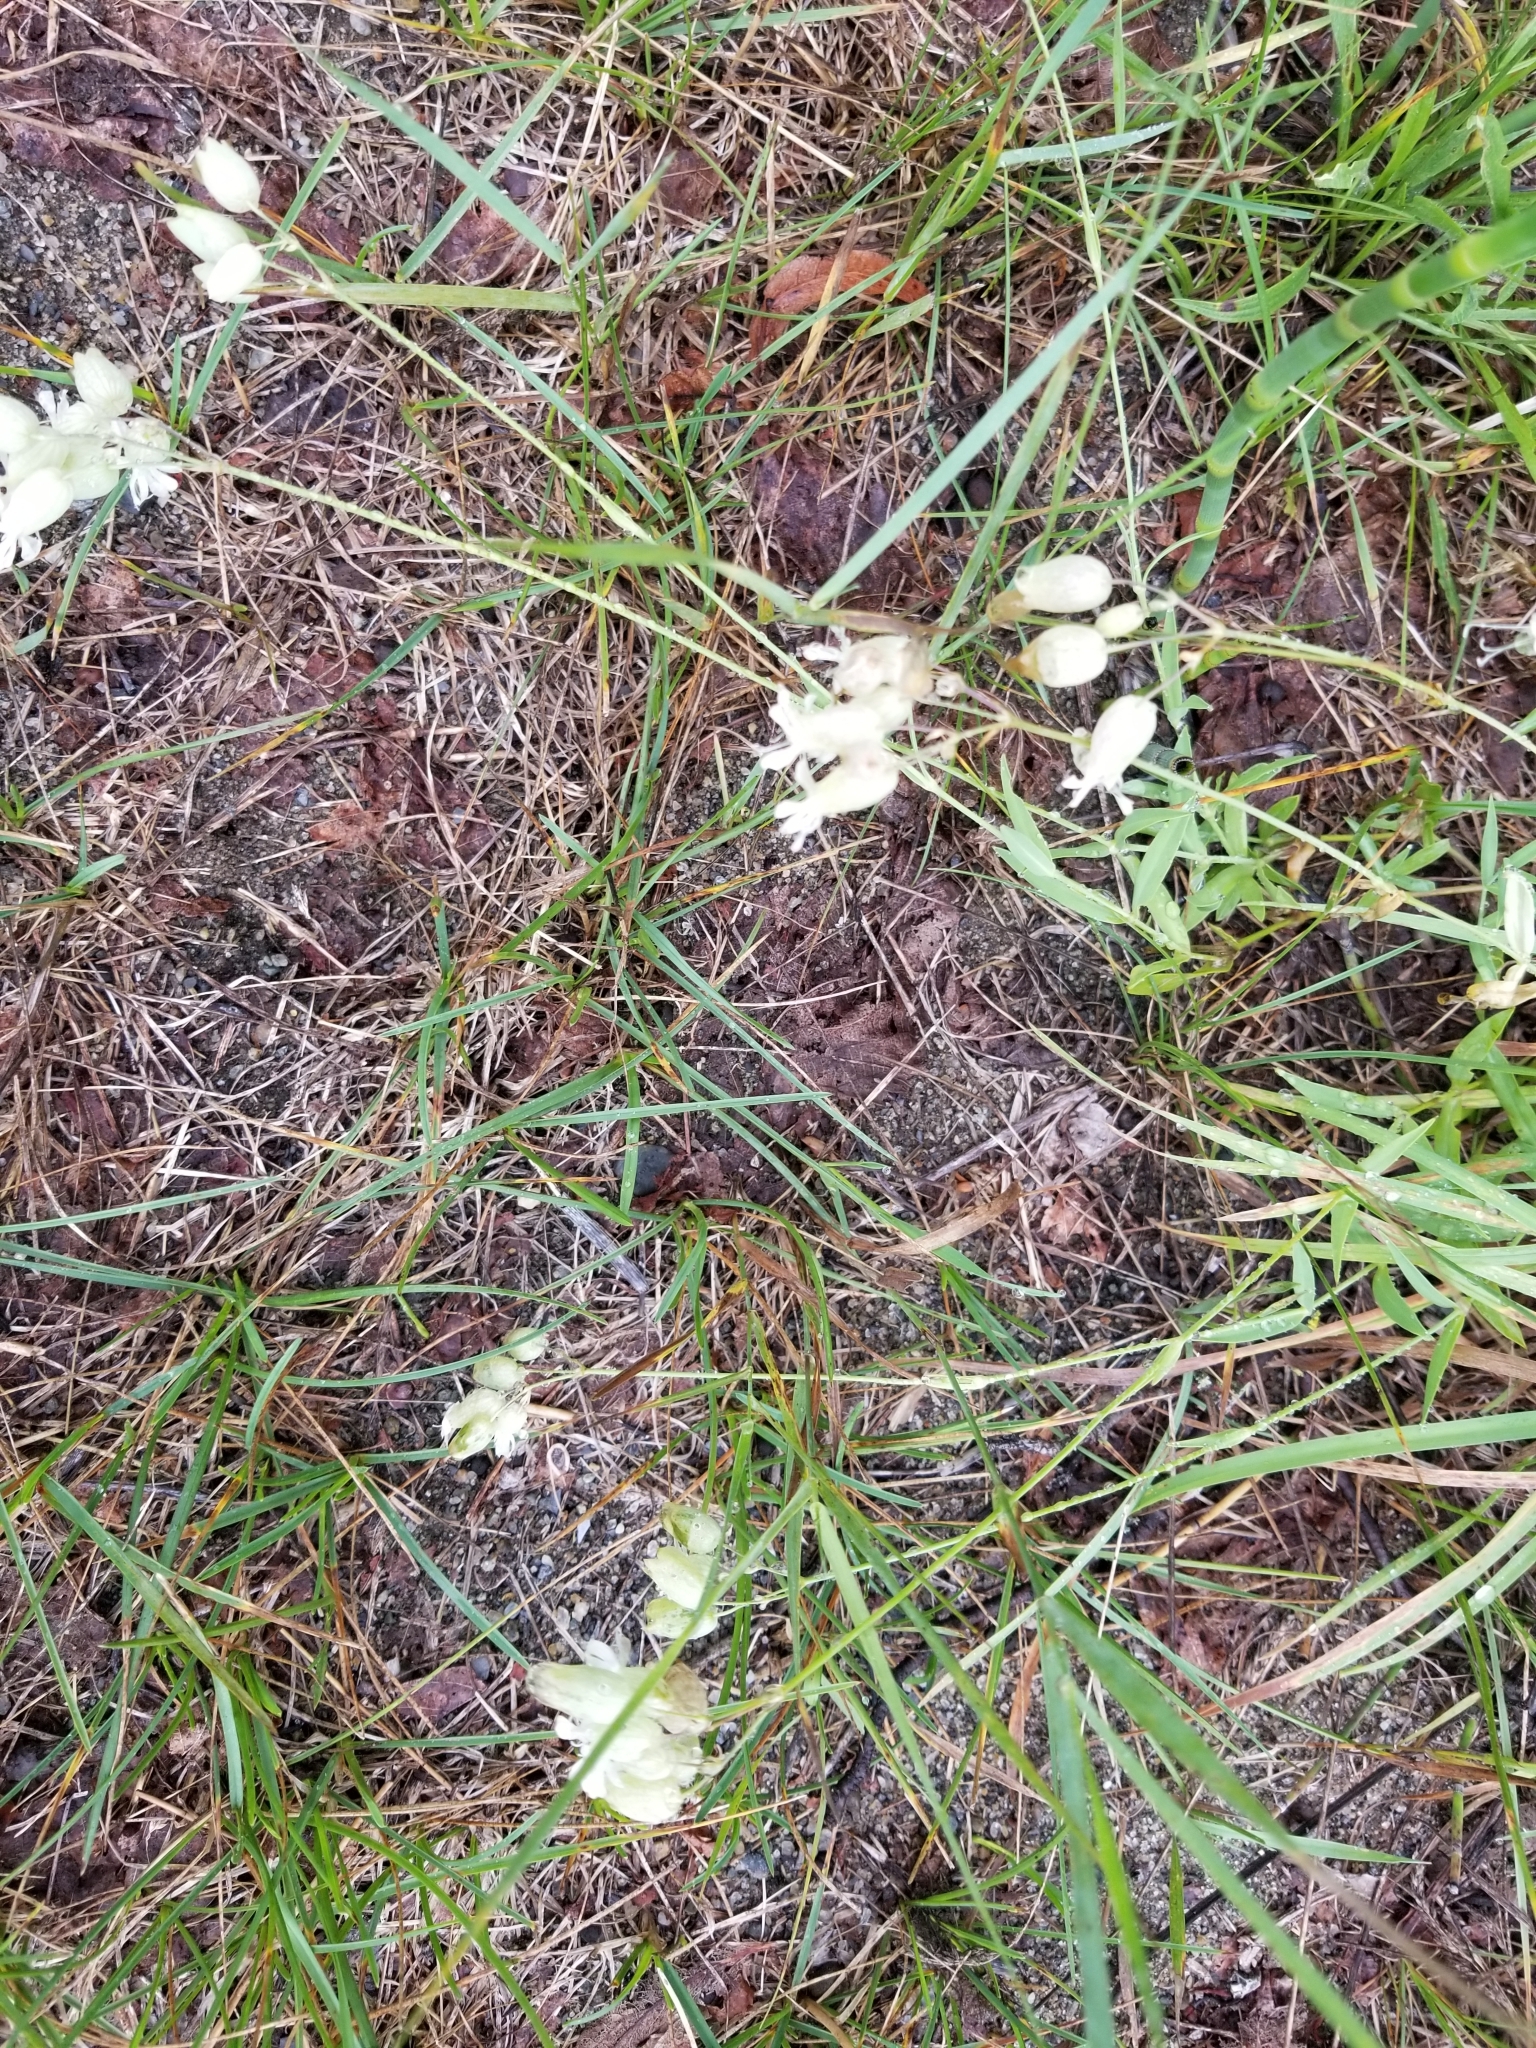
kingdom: Plantae
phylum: Tracheophyta
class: Magnoliopsida
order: Caryophyllales
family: Caryophyllaceae
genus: Silene
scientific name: Silene vulgaris
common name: Bladder campion
